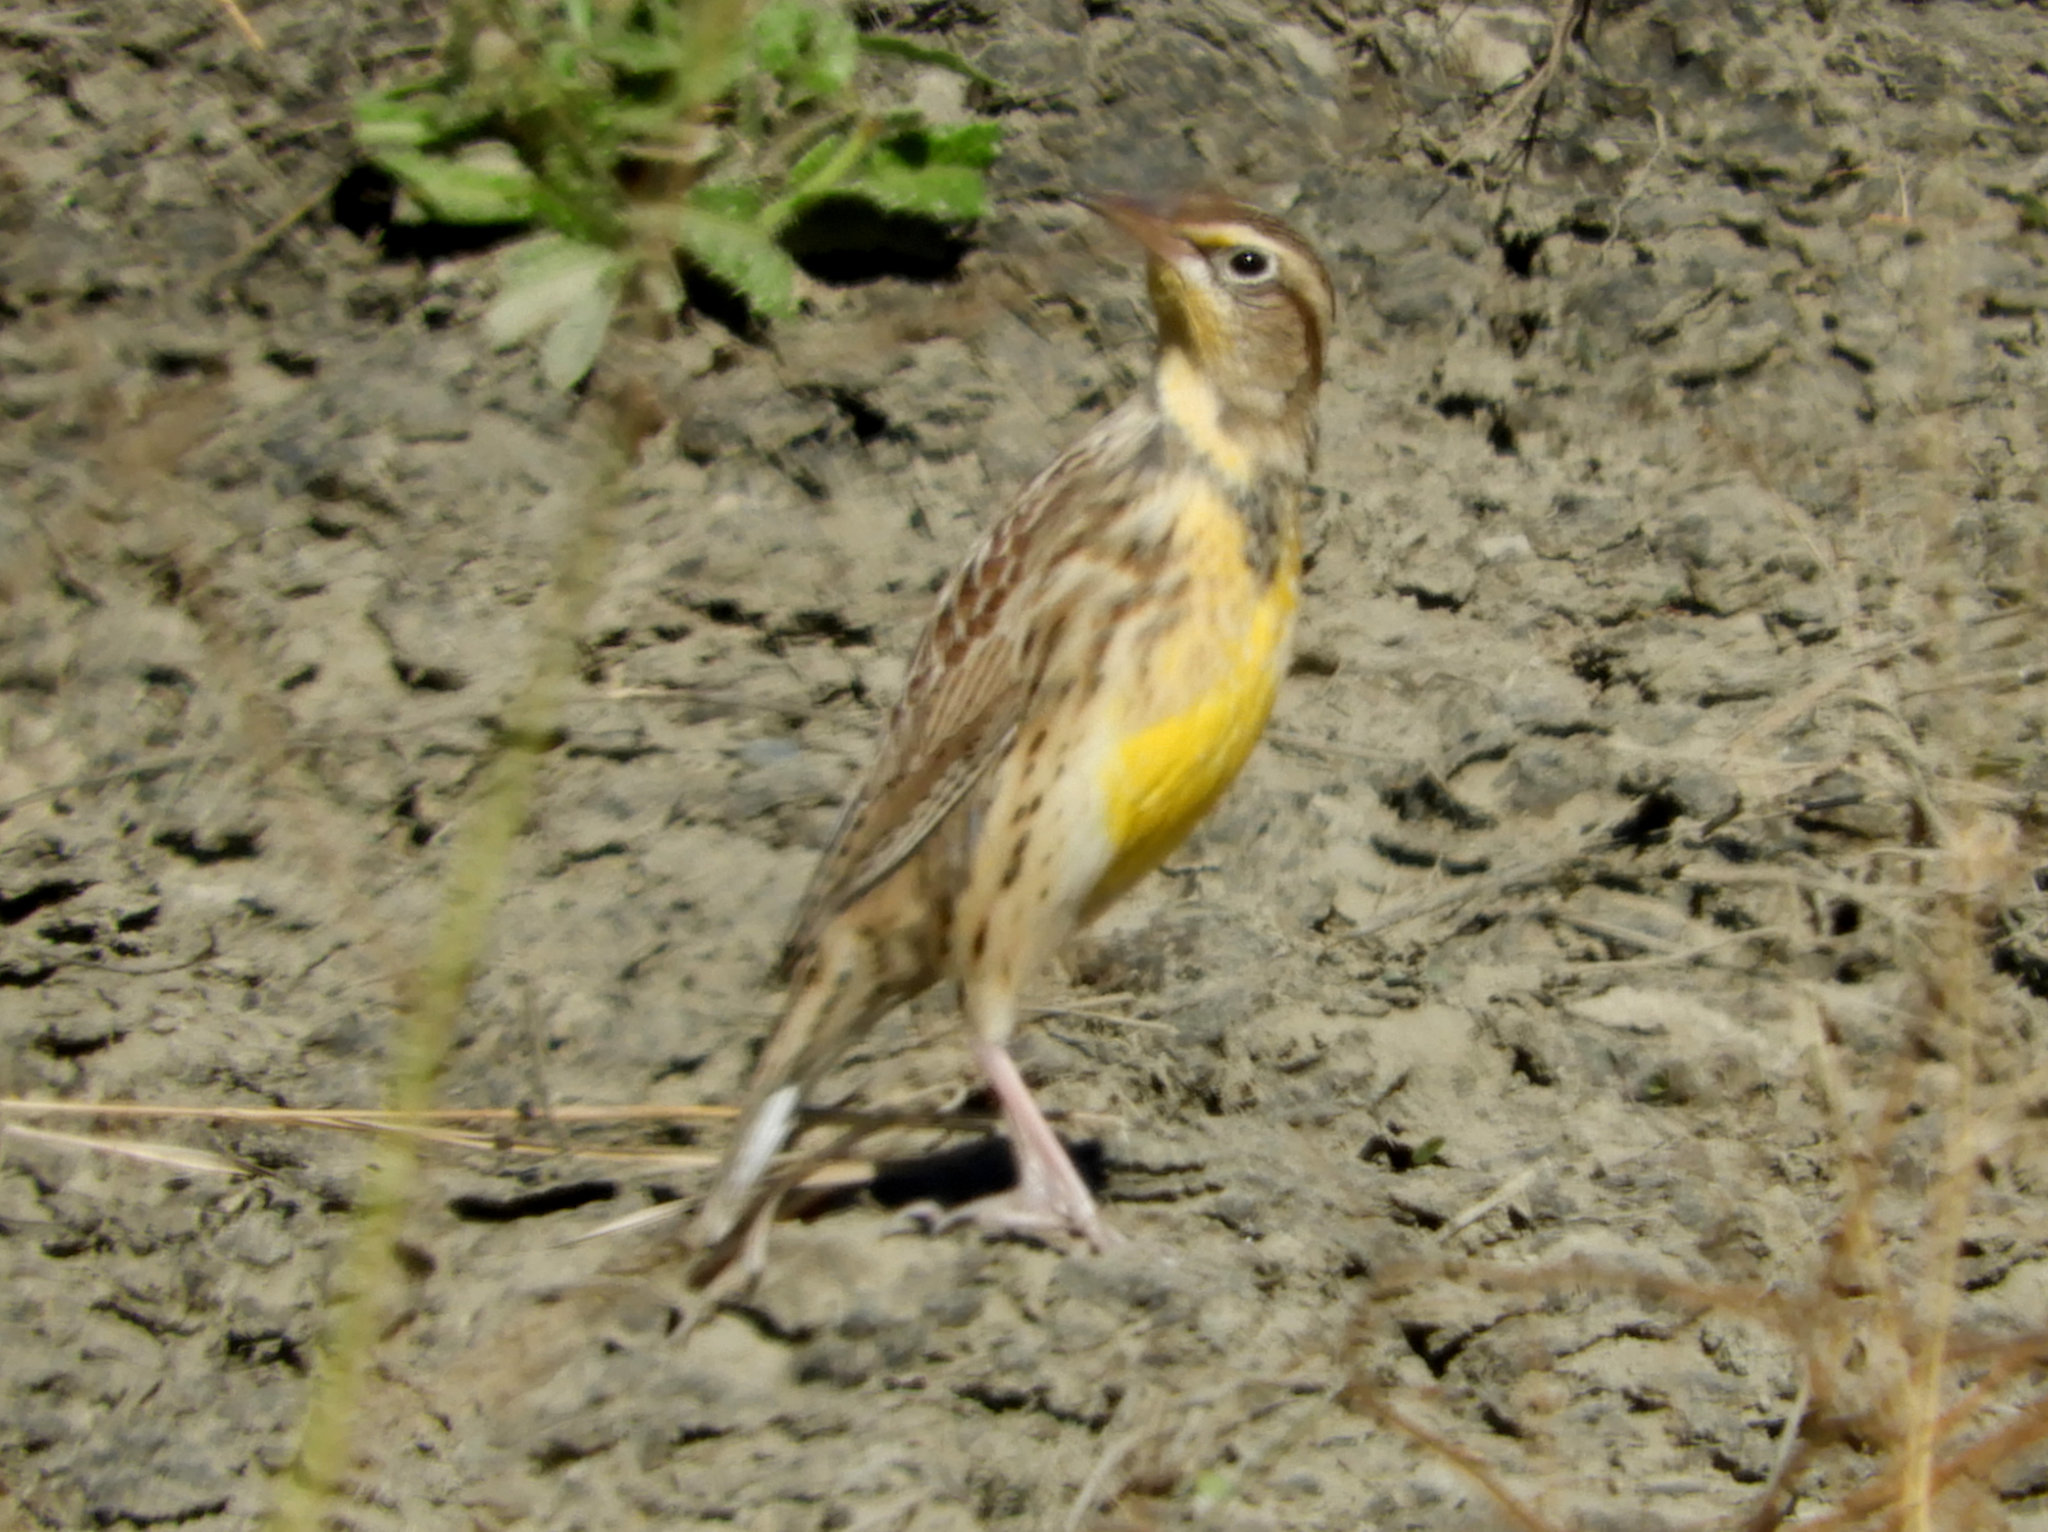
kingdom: Animalia
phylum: Chordata
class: Aves
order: Passeriformes
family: Icteridae
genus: Sturnella
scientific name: Sturnella neglecta
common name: Western meadowlark
